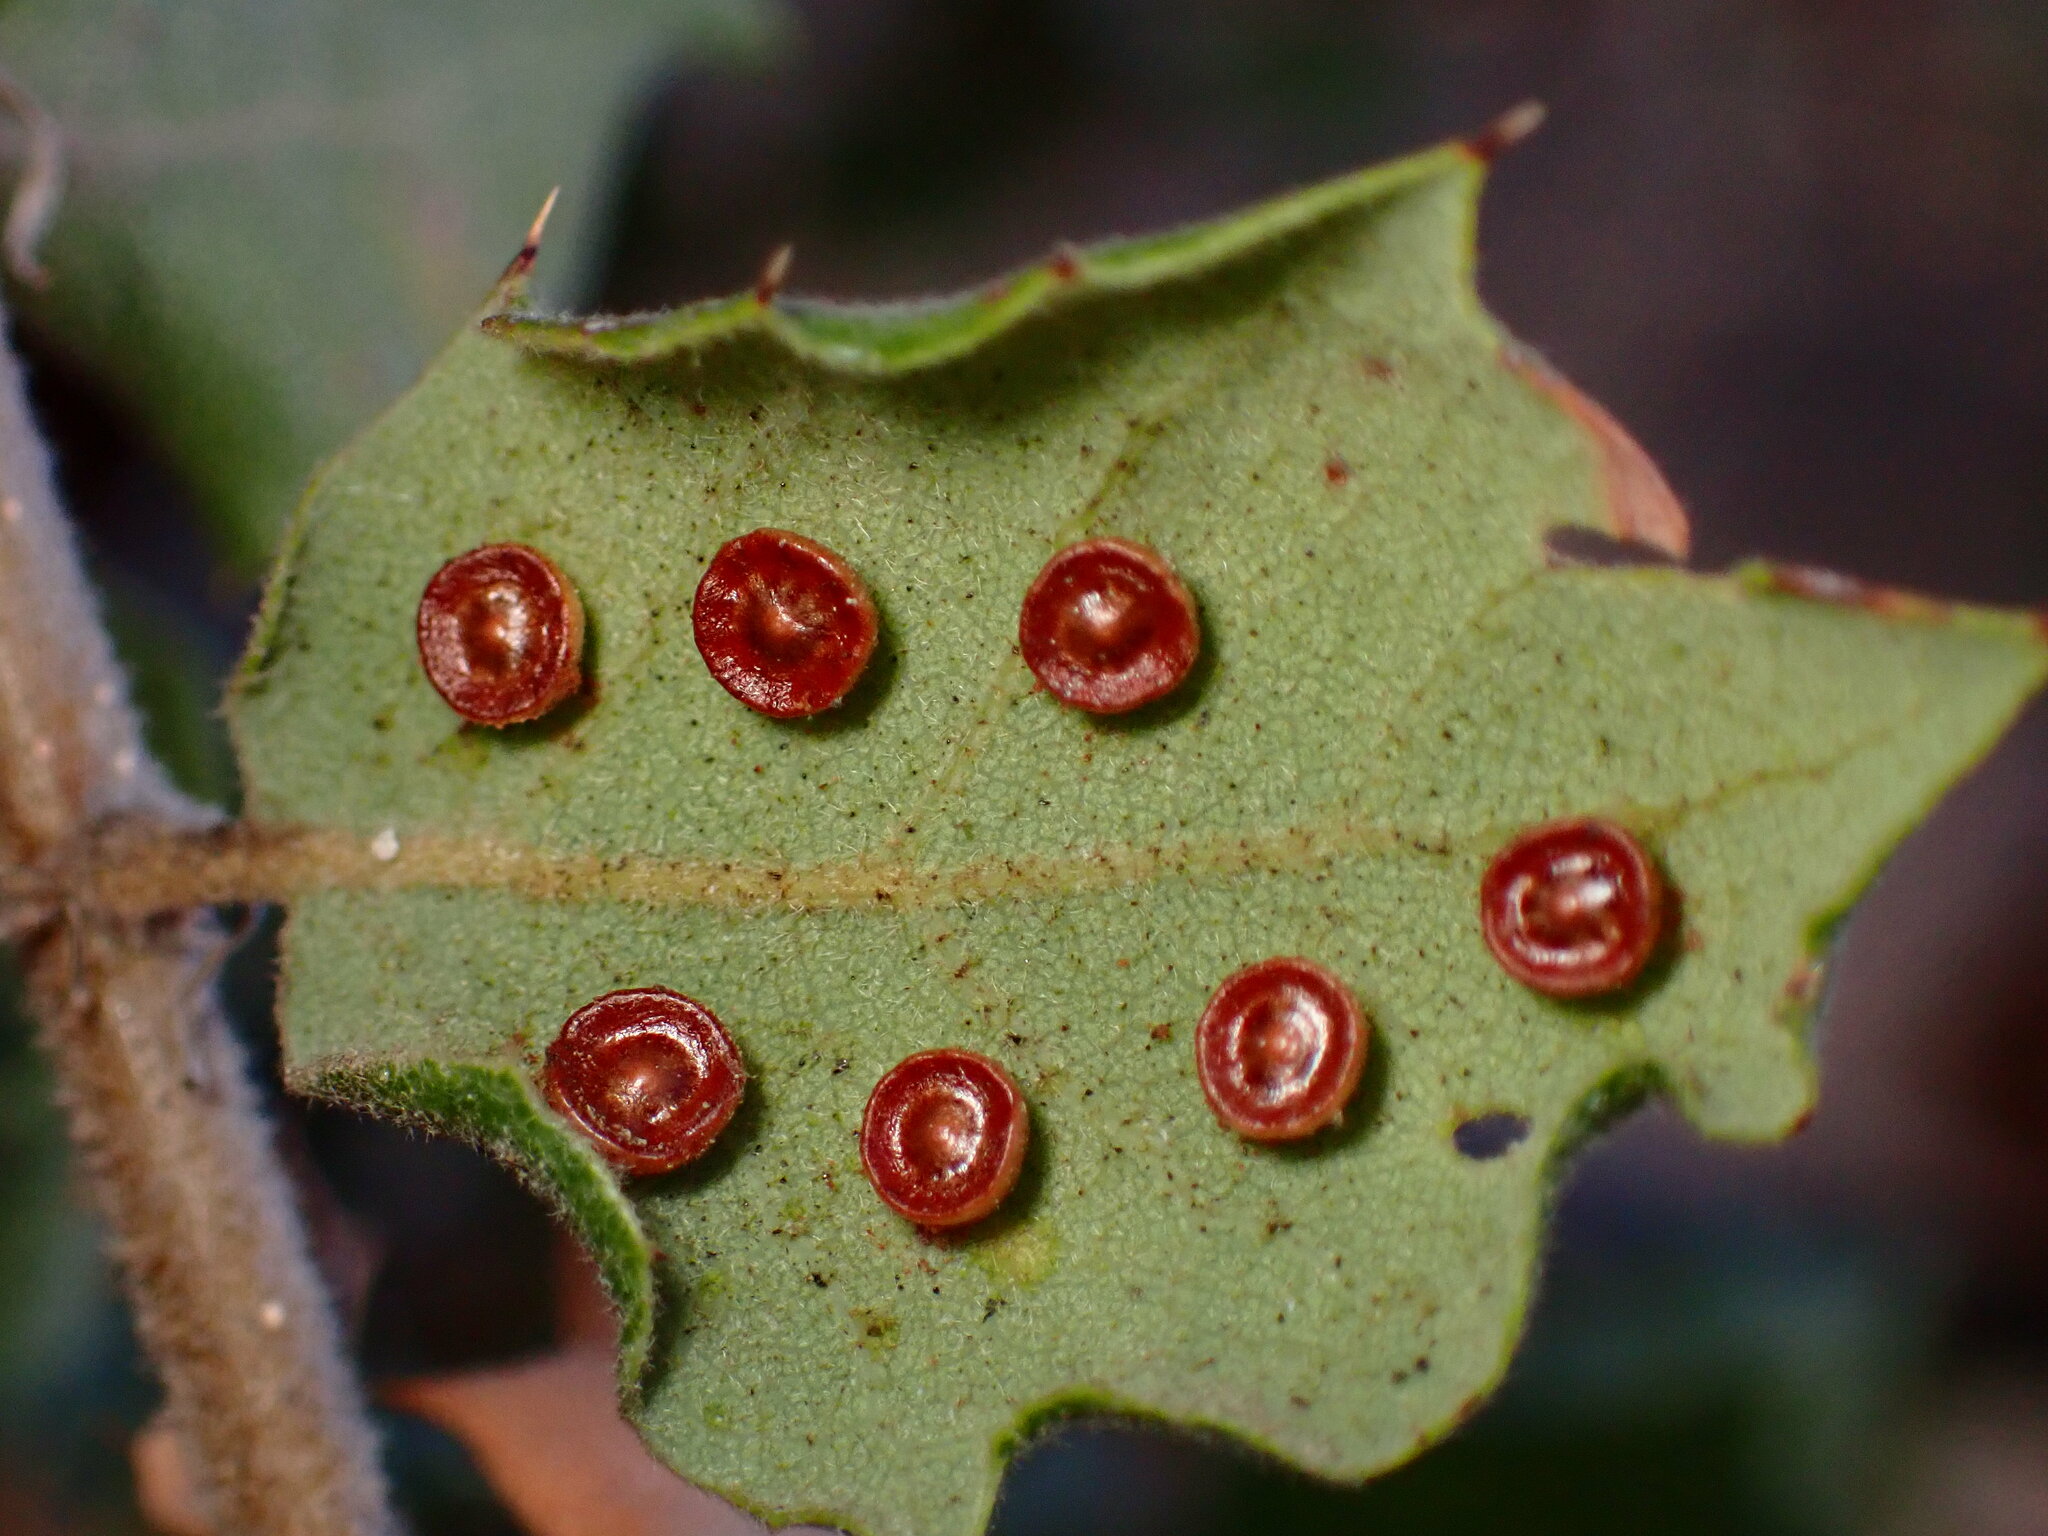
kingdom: Animalia
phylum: Arthropoda
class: Insecta
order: Hymenoptera
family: Cynipidae
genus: Andricus
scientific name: Andricus
